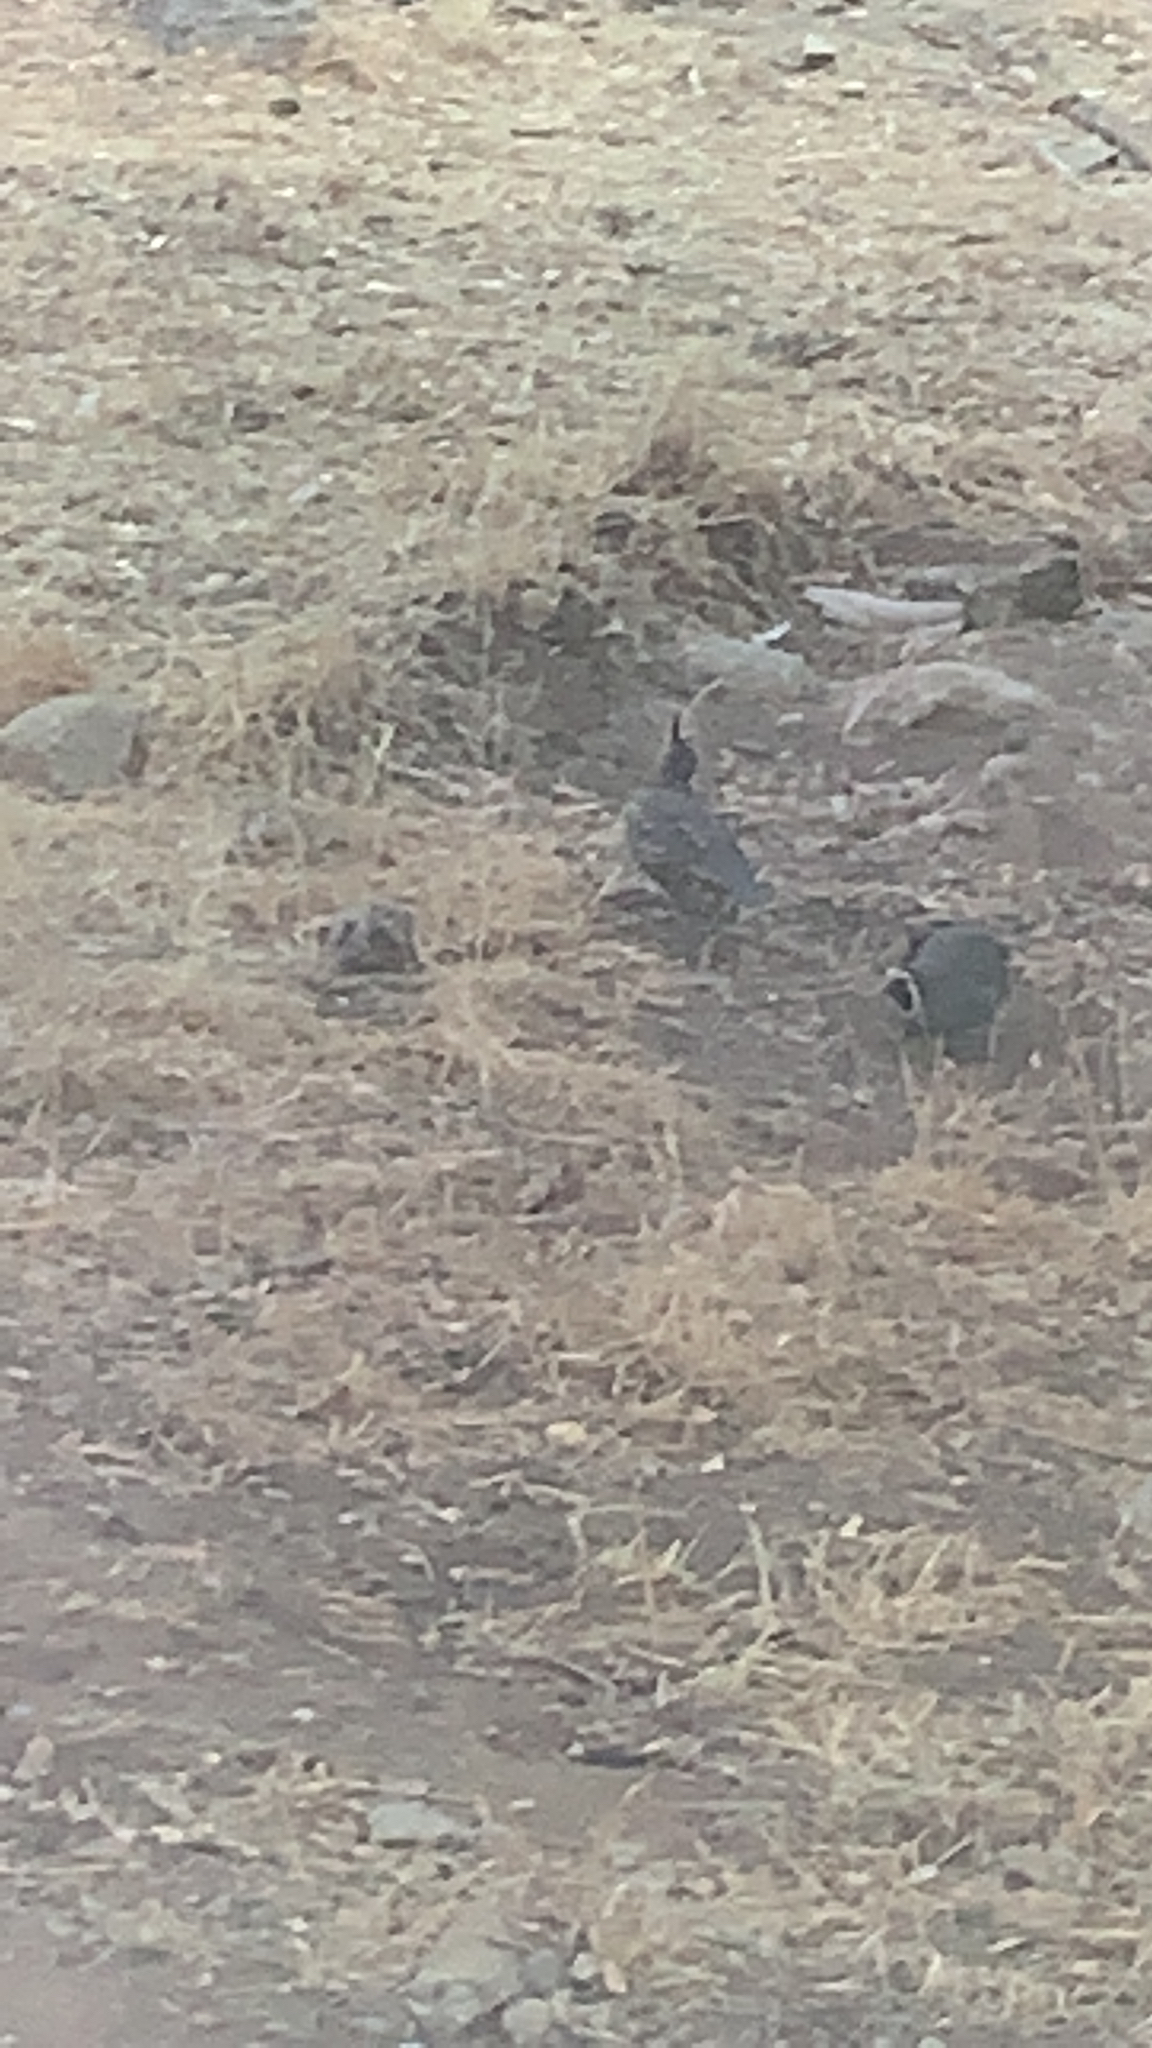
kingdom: Animalia
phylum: Chordata
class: Aves
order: Galliformes
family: Odontophoridae
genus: Callipepla
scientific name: Callipepla californica
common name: California quail
